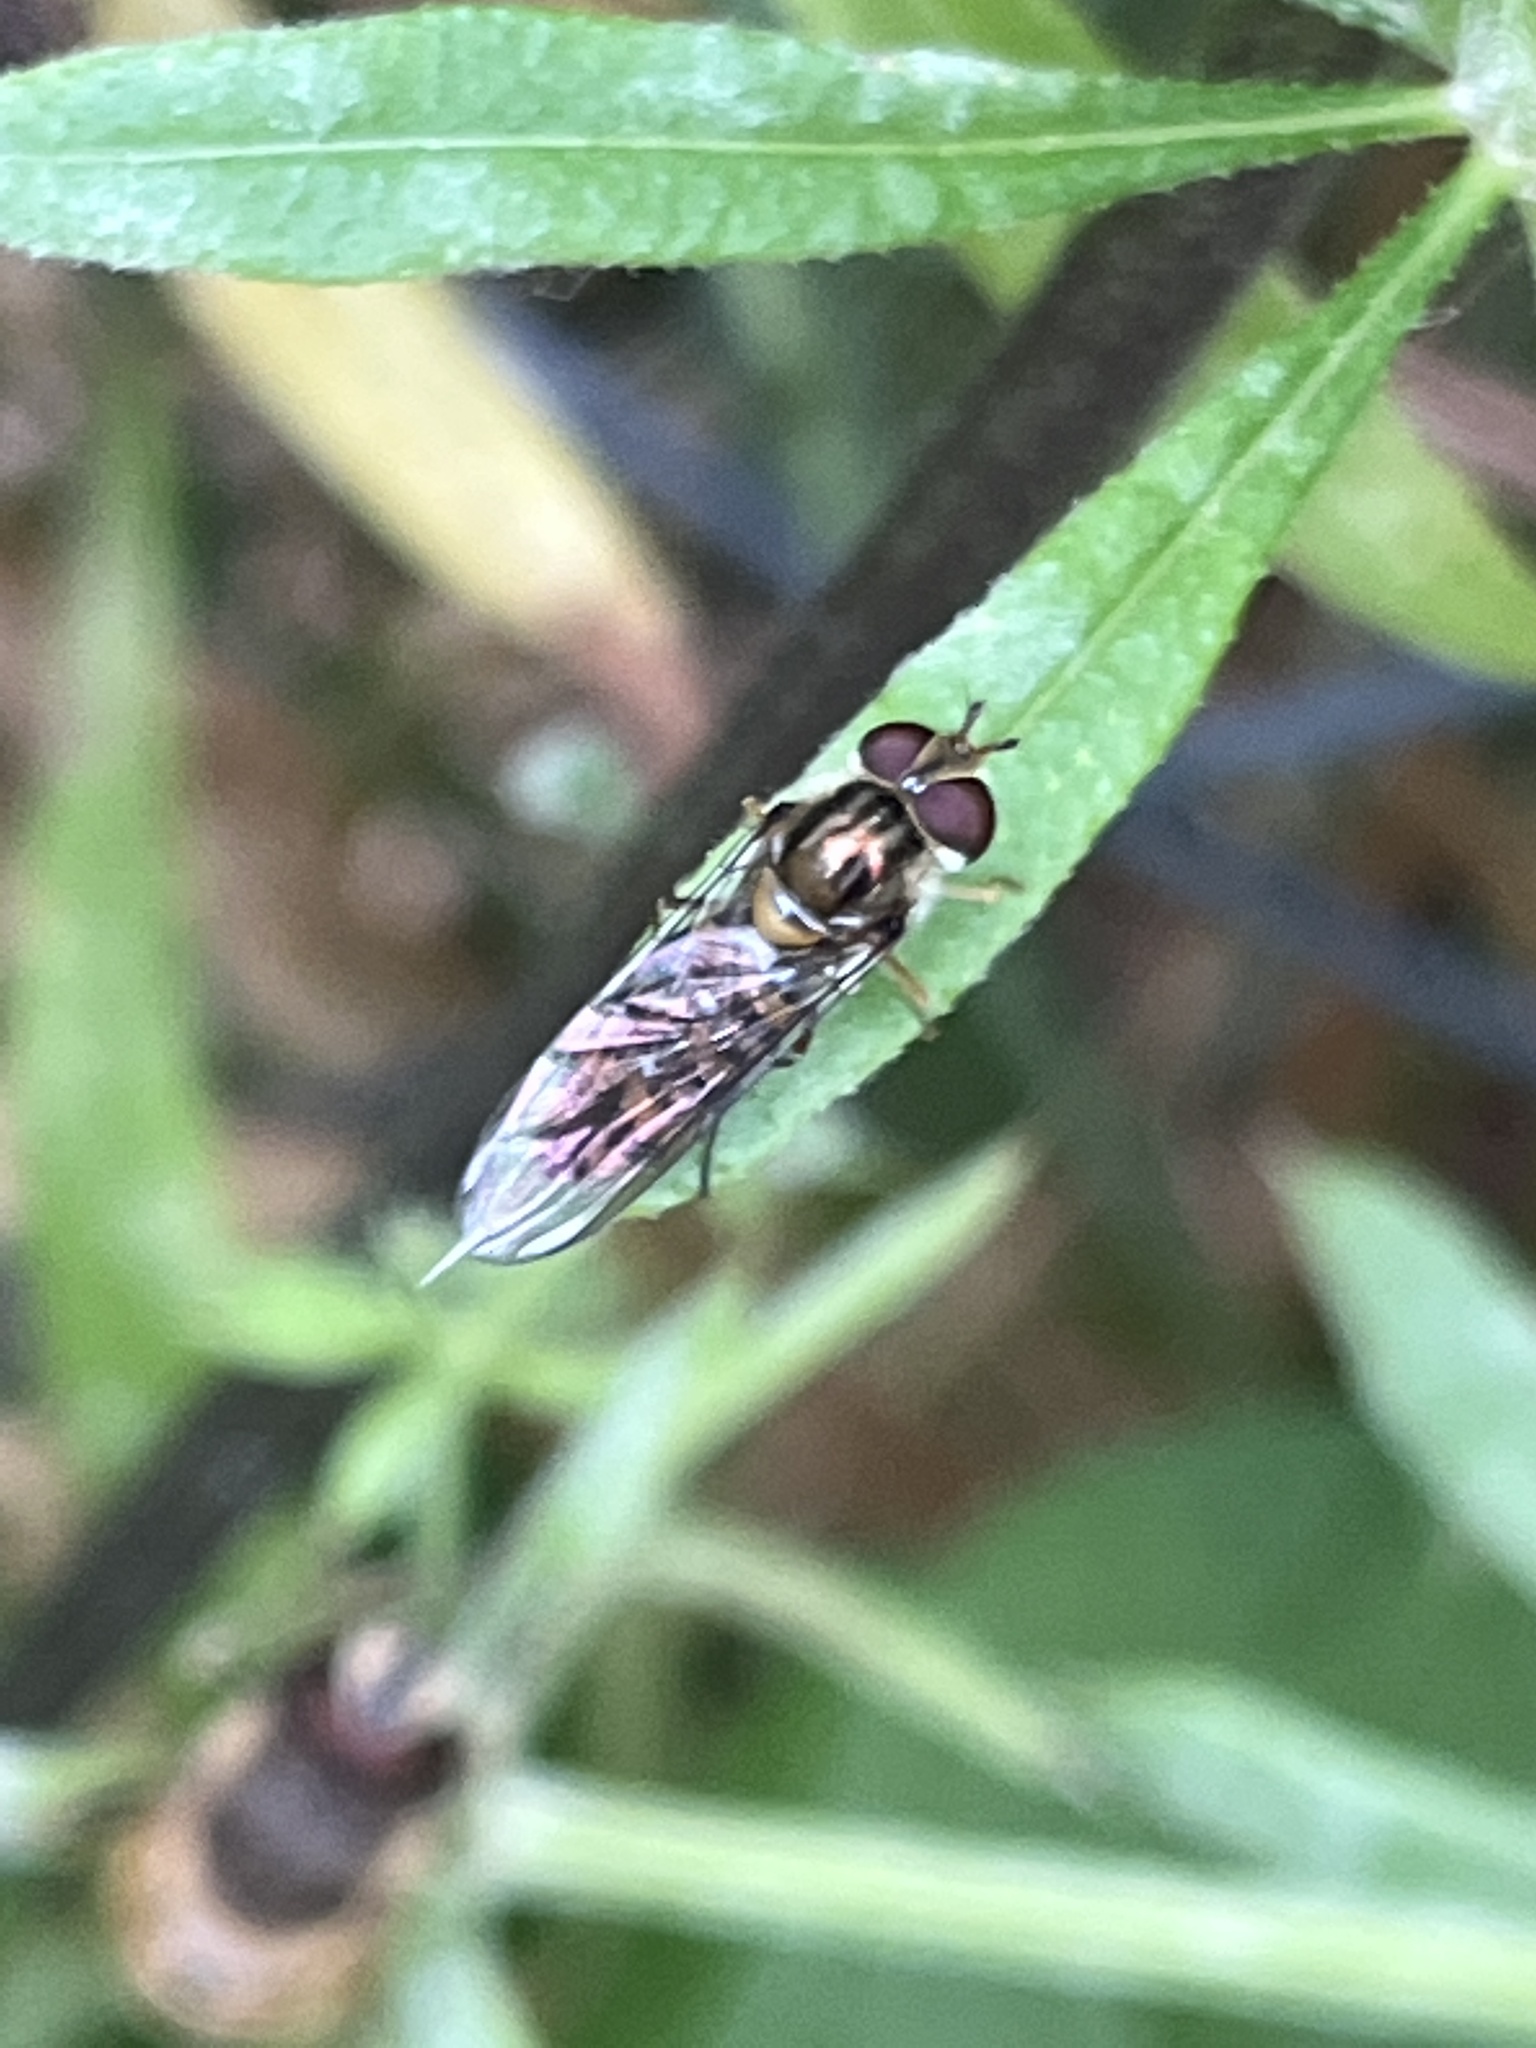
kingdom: Animalia
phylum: Arthropoda
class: Insecta
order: Diptera
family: Syrphidae
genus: Episyrphus
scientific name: Episyrphus balteatus
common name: Marmalade hoverfly
